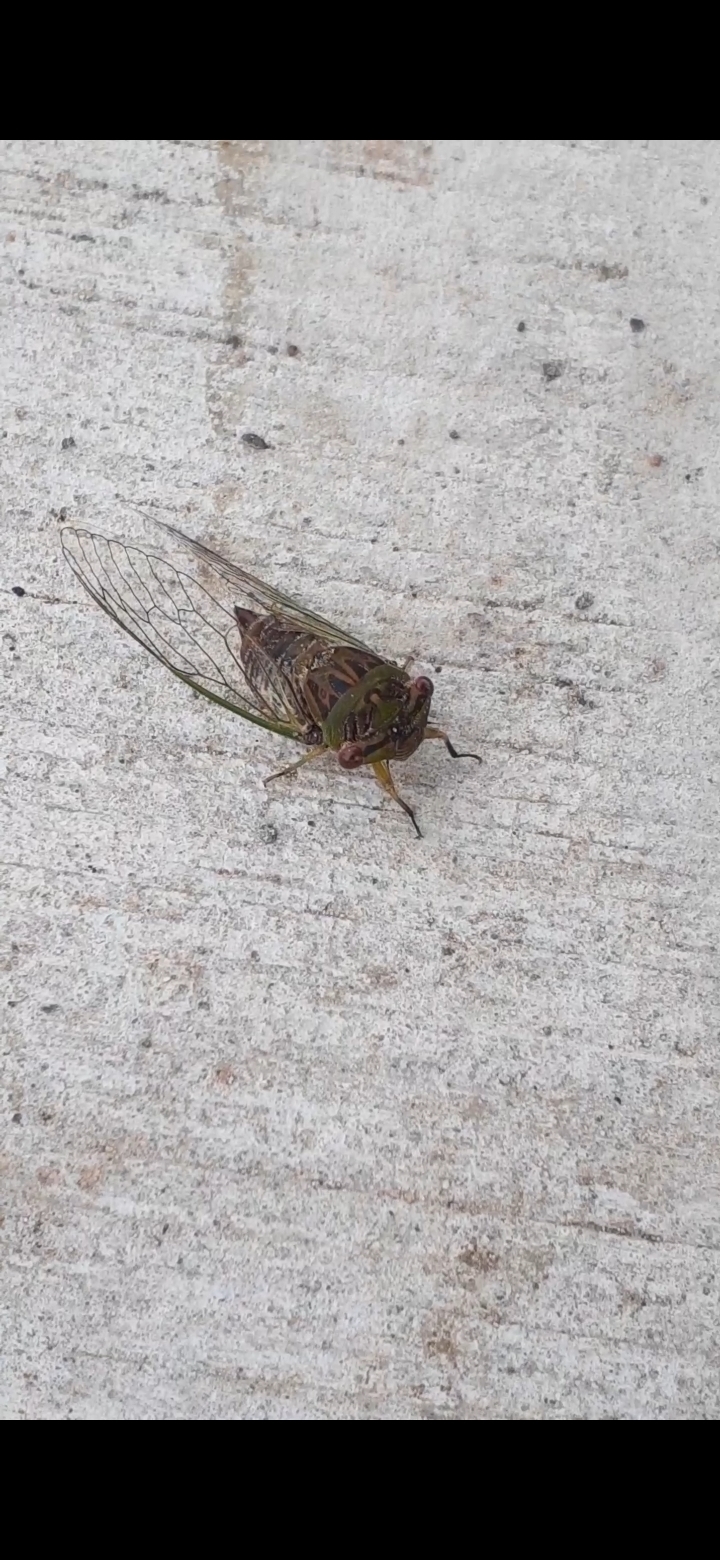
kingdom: Animalia
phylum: Arthropoda
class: Insecta
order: Hemiptera
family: Cicadidae
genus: Psaltoda
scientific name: Psaltoda claripennis
